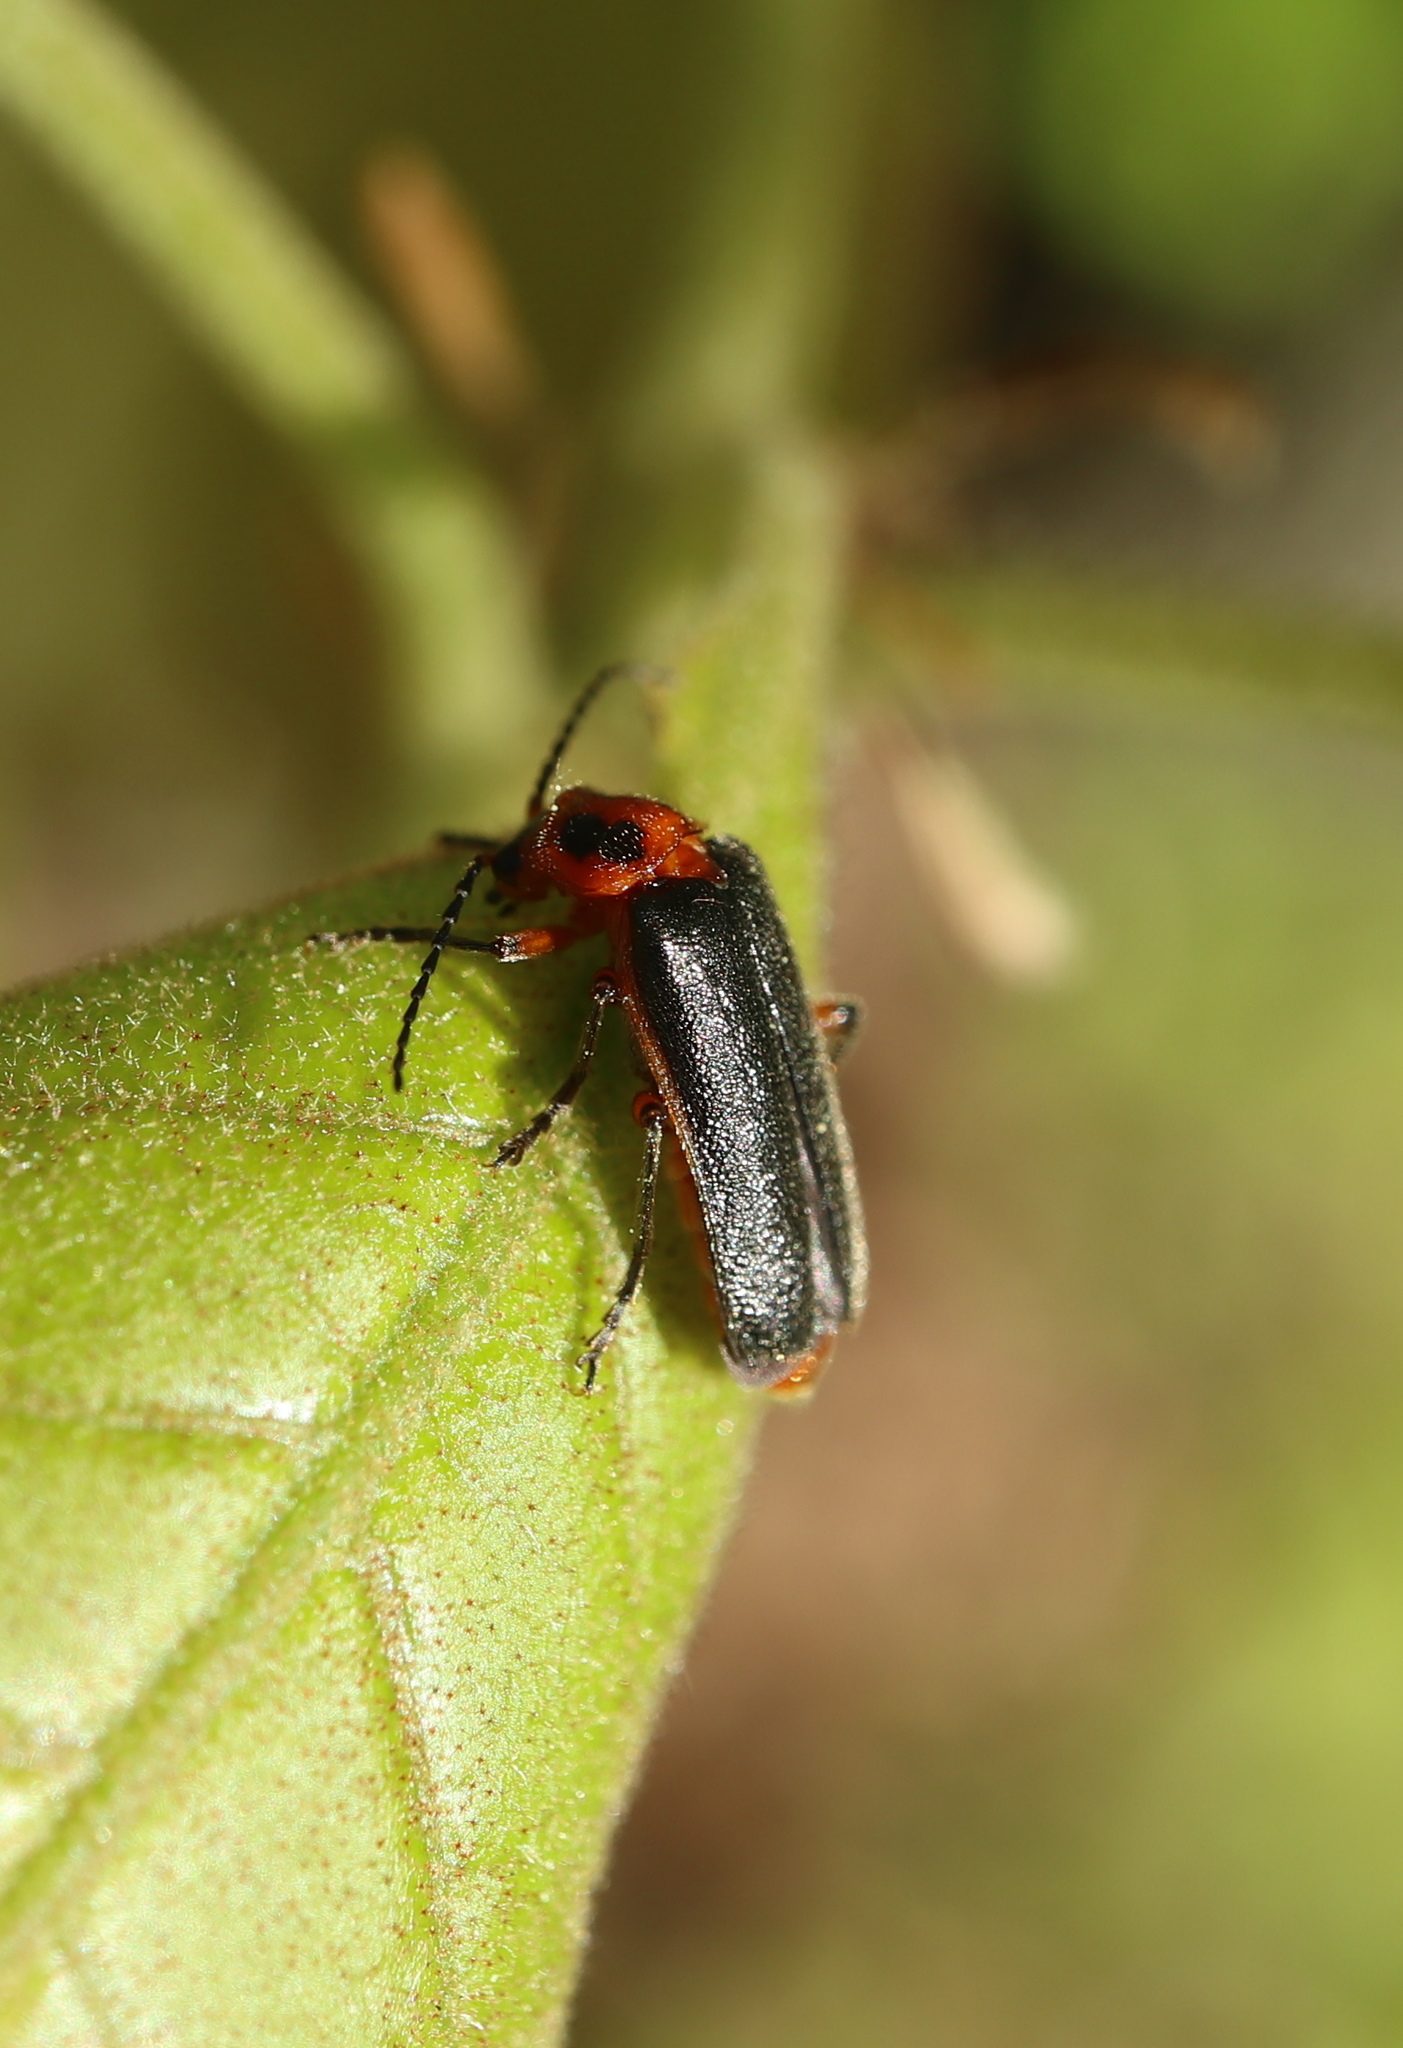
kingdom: Animalia
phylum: Arthropoda
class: Insecta
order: Coleoptera
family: Cantharidae
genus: Atalantycha
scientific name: Atalantycha bilineata
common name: Two-lined leatherwing
